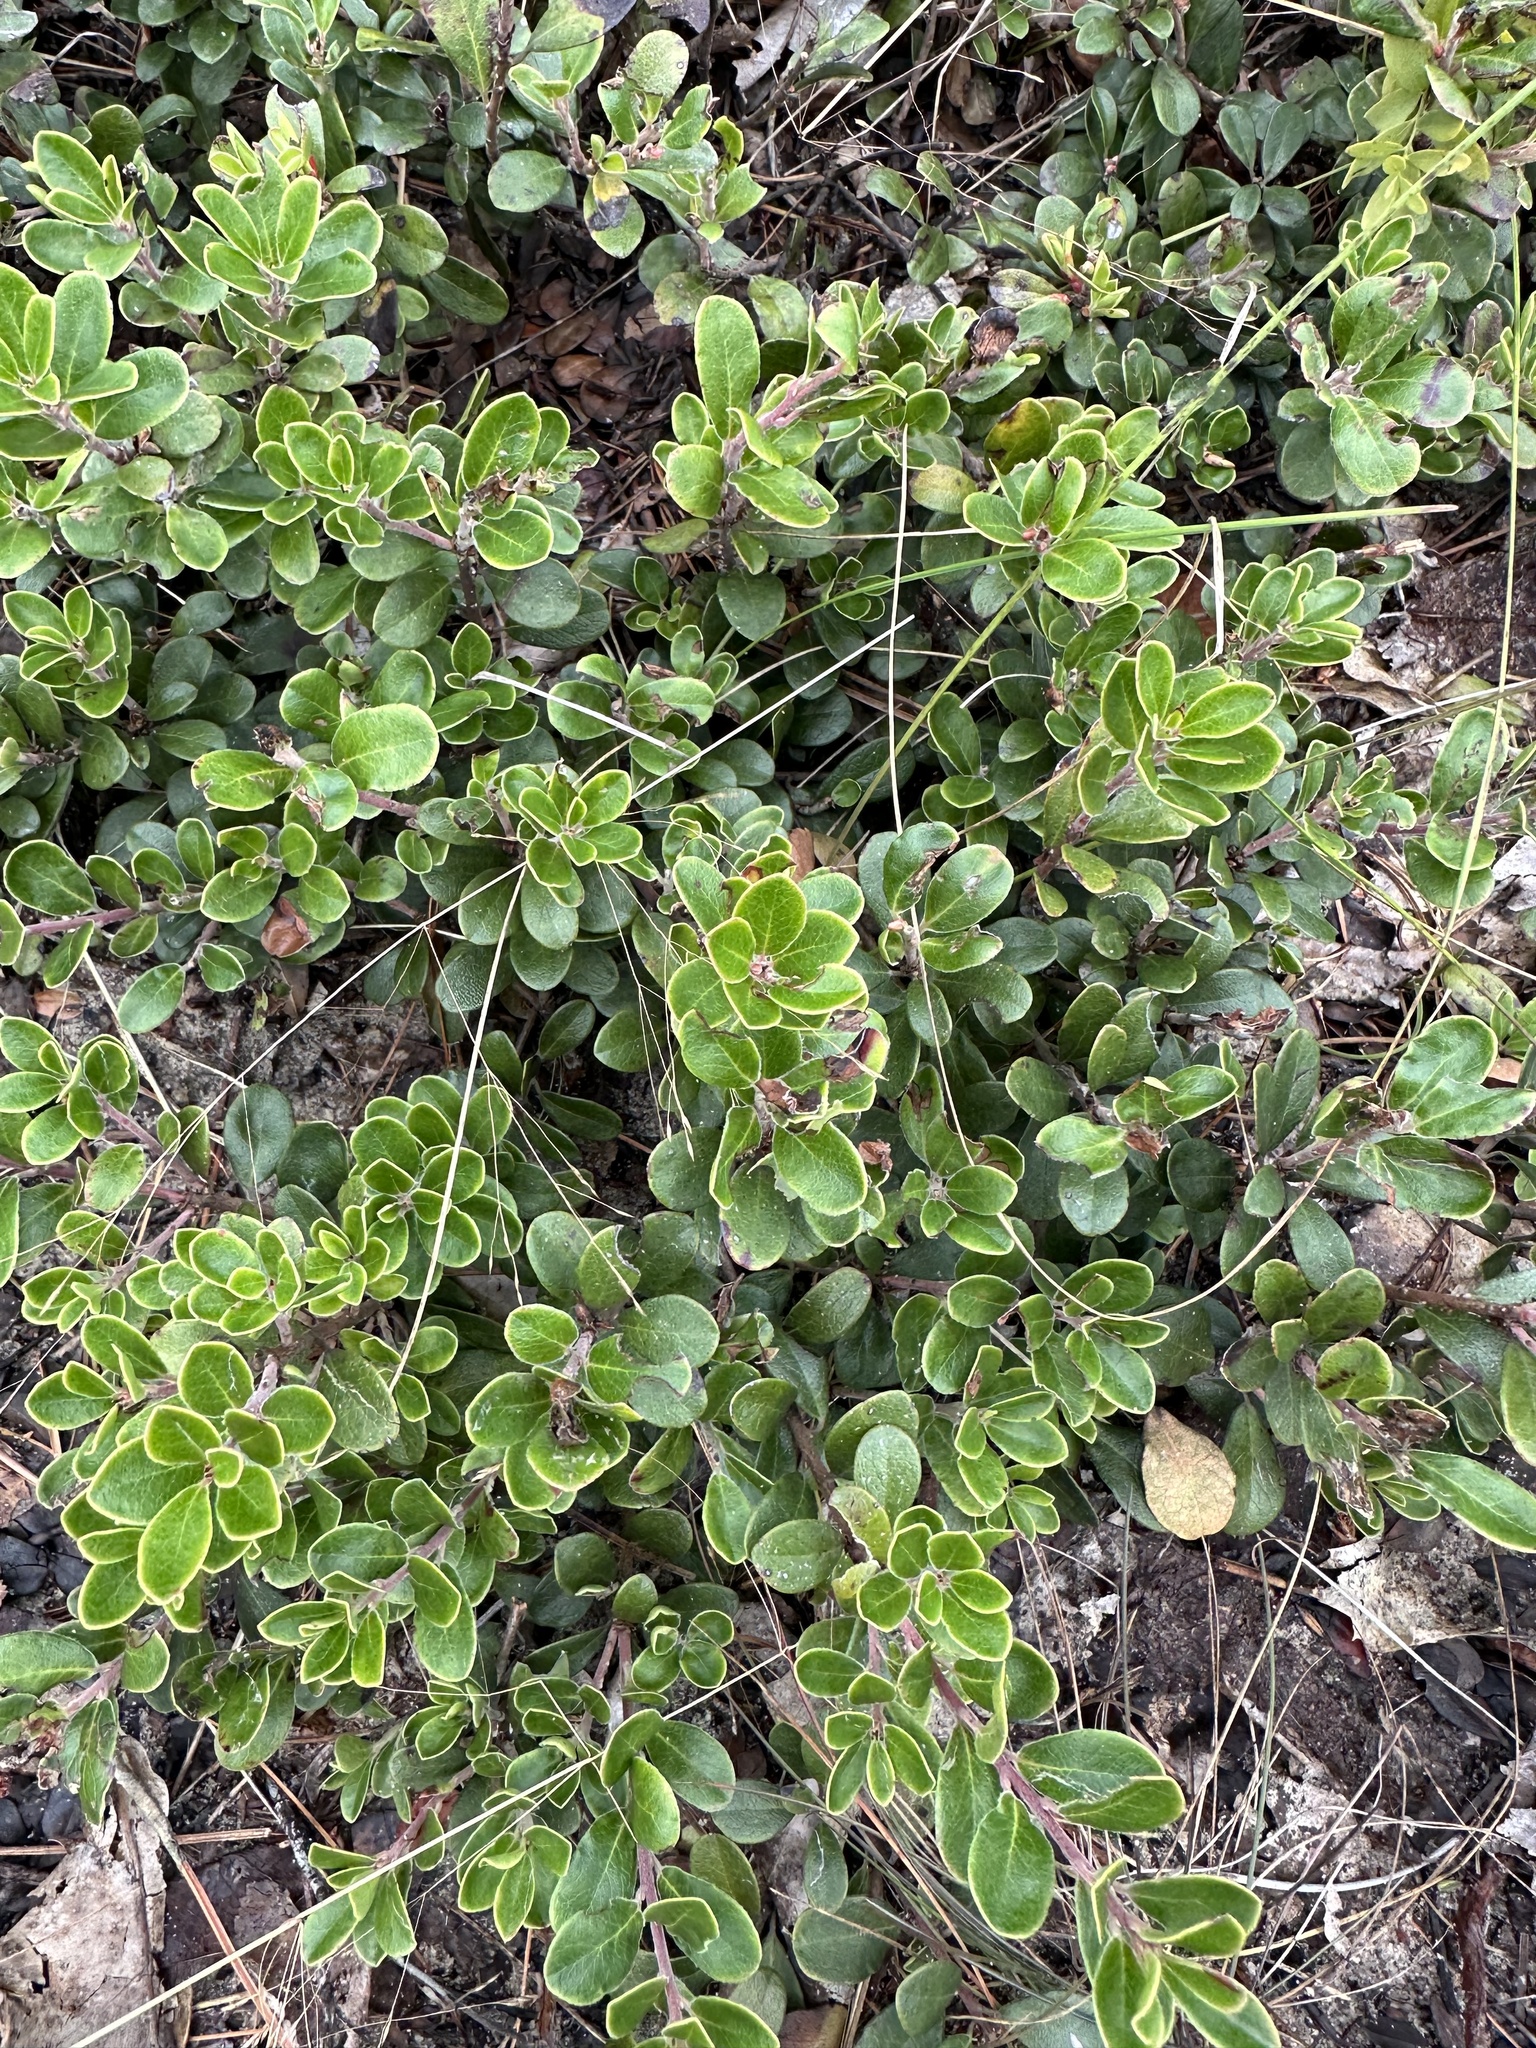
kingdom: Plantae
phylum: Tracheophyta
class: Magnoliopsida
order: Ericales
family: Ericaceae
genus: Arctostaphylos
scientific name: Arctostaphylos uva-ursi
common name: Bearberry
